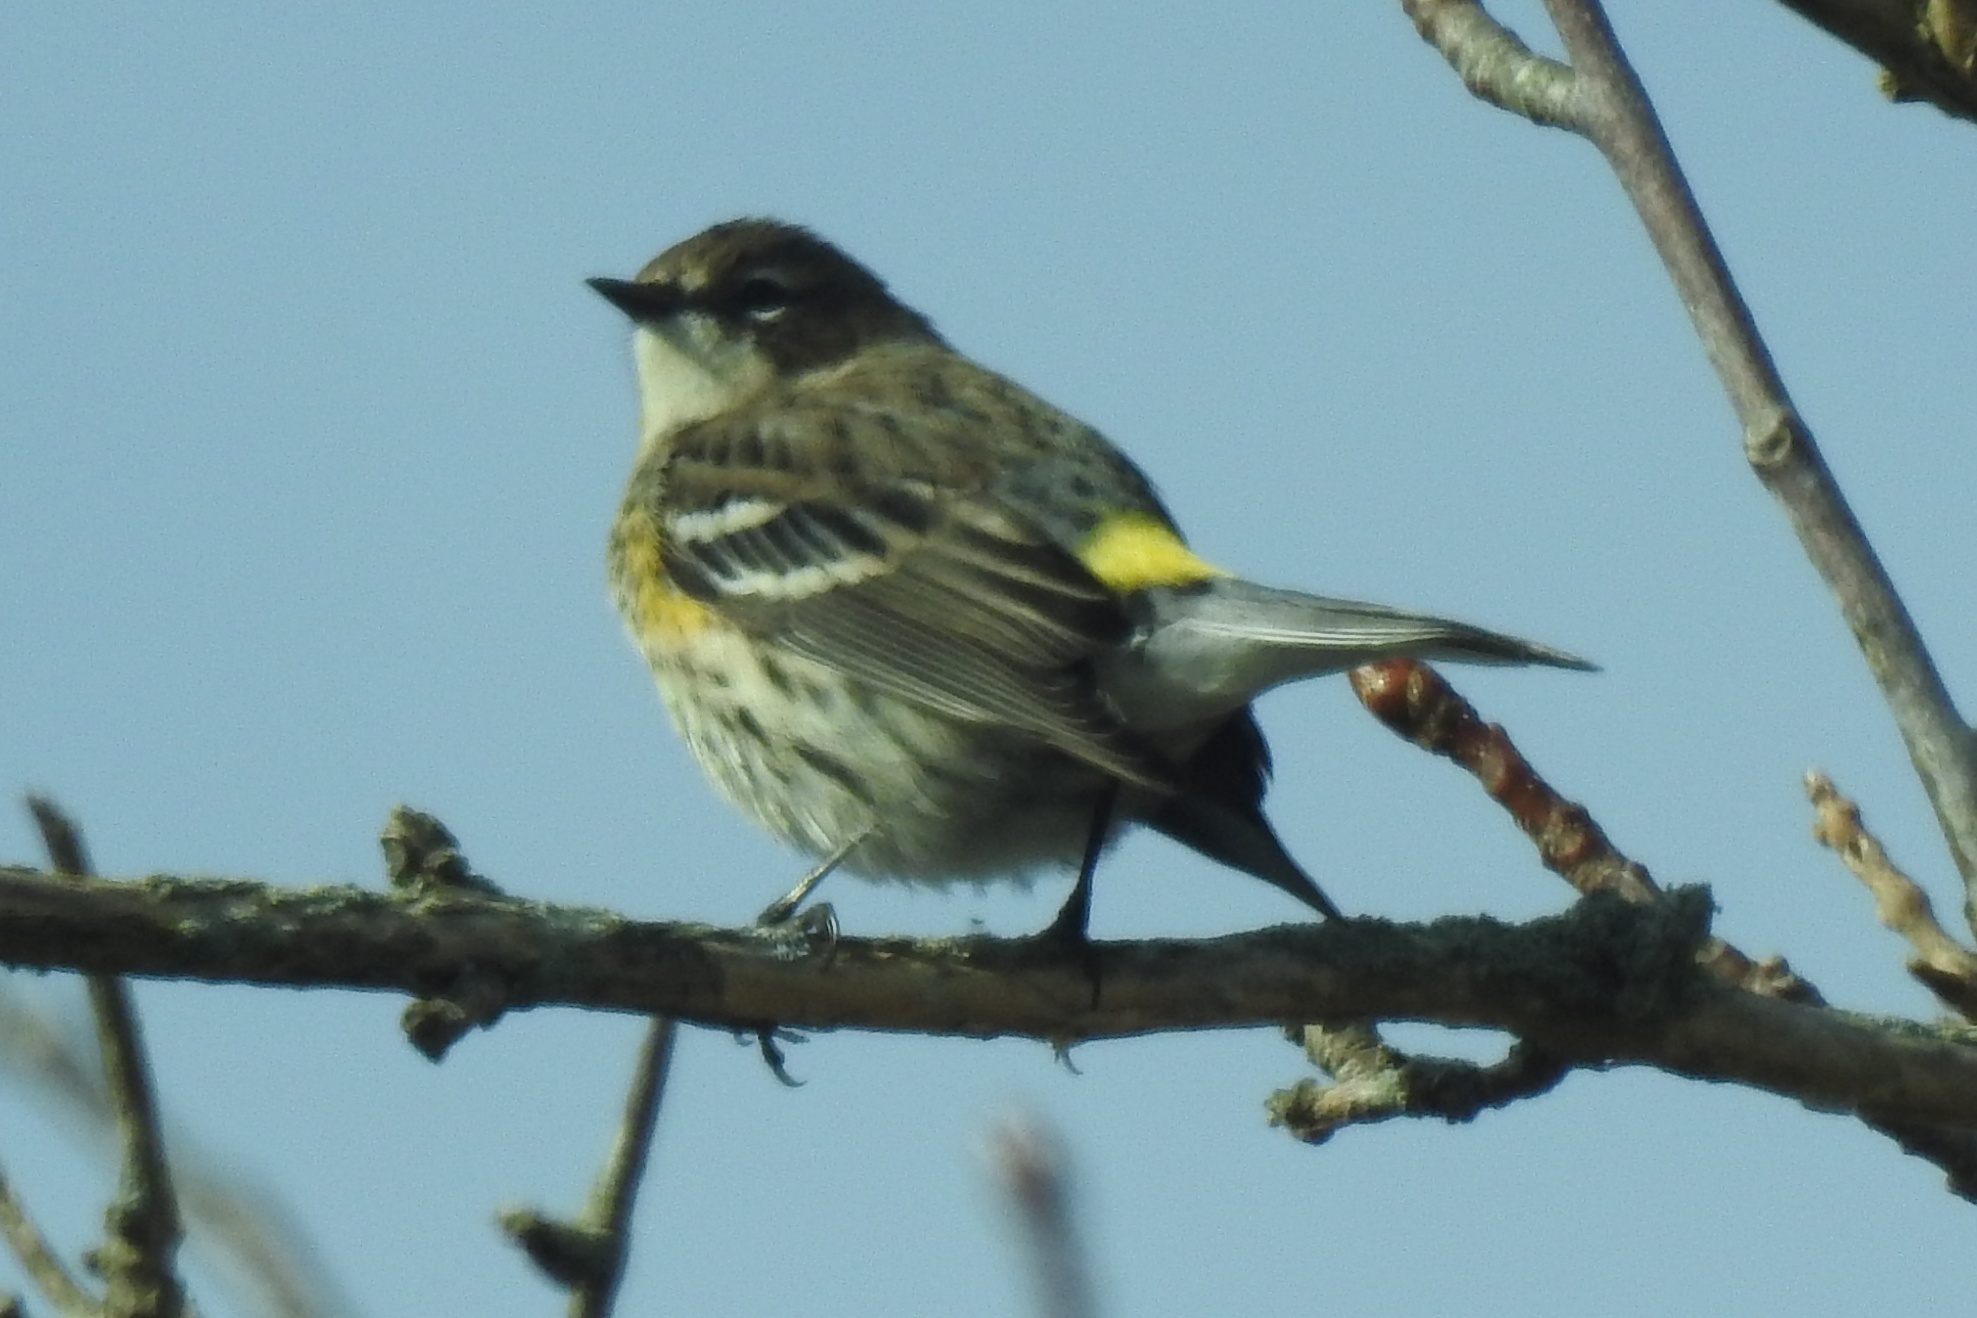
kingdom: Animalia
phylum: Chordata
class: Aves
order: Passeriformes
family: Parulidae
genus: Setophaga
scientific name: Setophaga coronata
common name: Myrtle warbler
